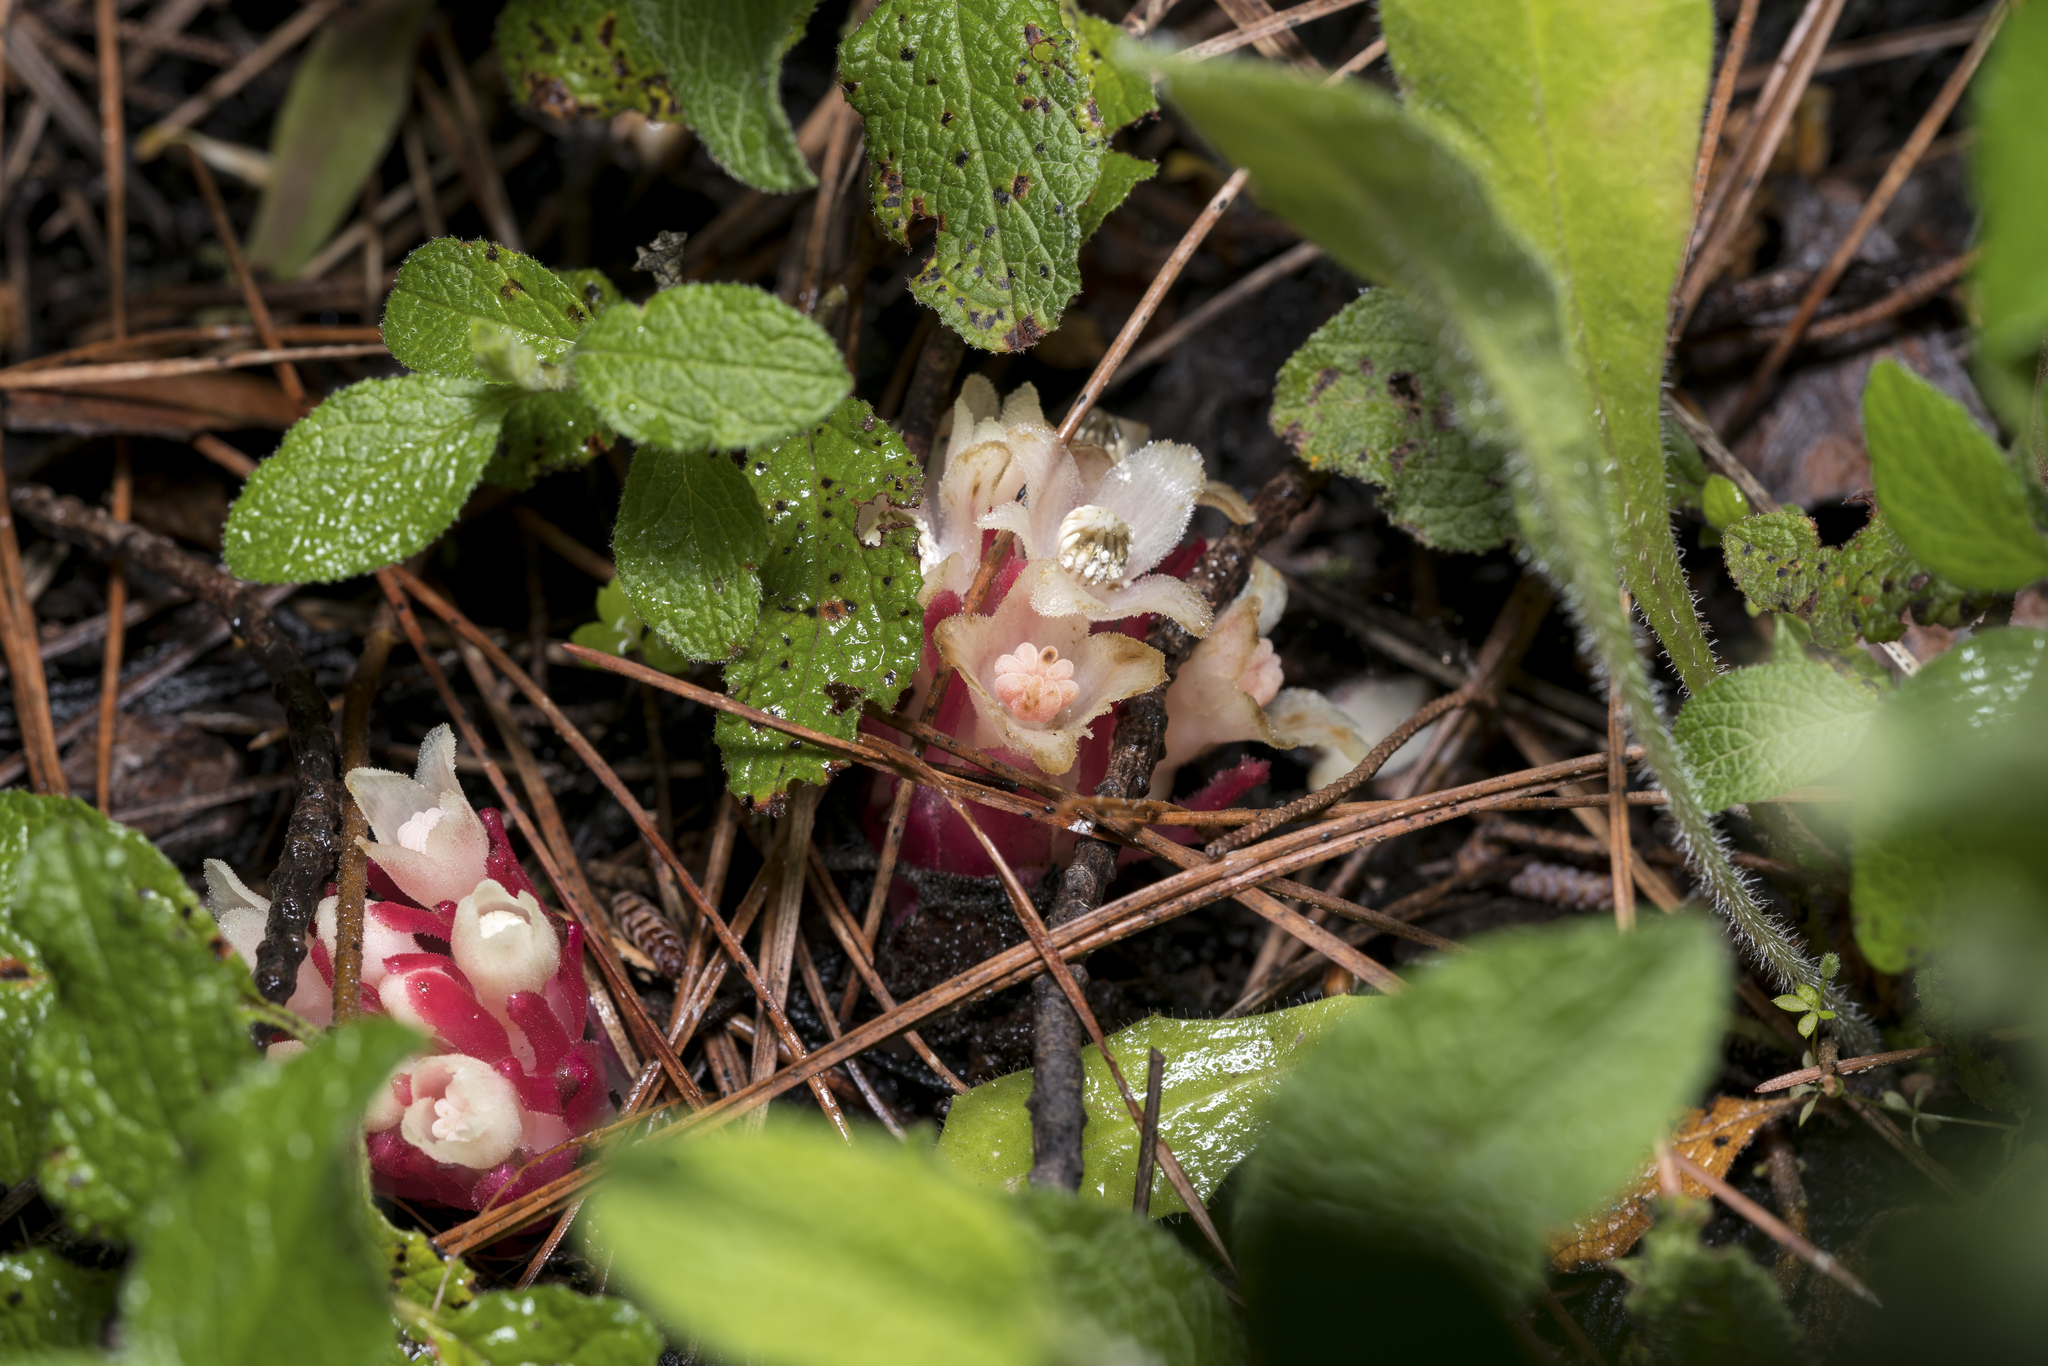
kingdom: Plantae
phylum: Tracheophyta
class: Magnoliopsida
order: Malvales
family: Cytinaceae
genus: Cytinus
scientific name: Cytinus ruber
